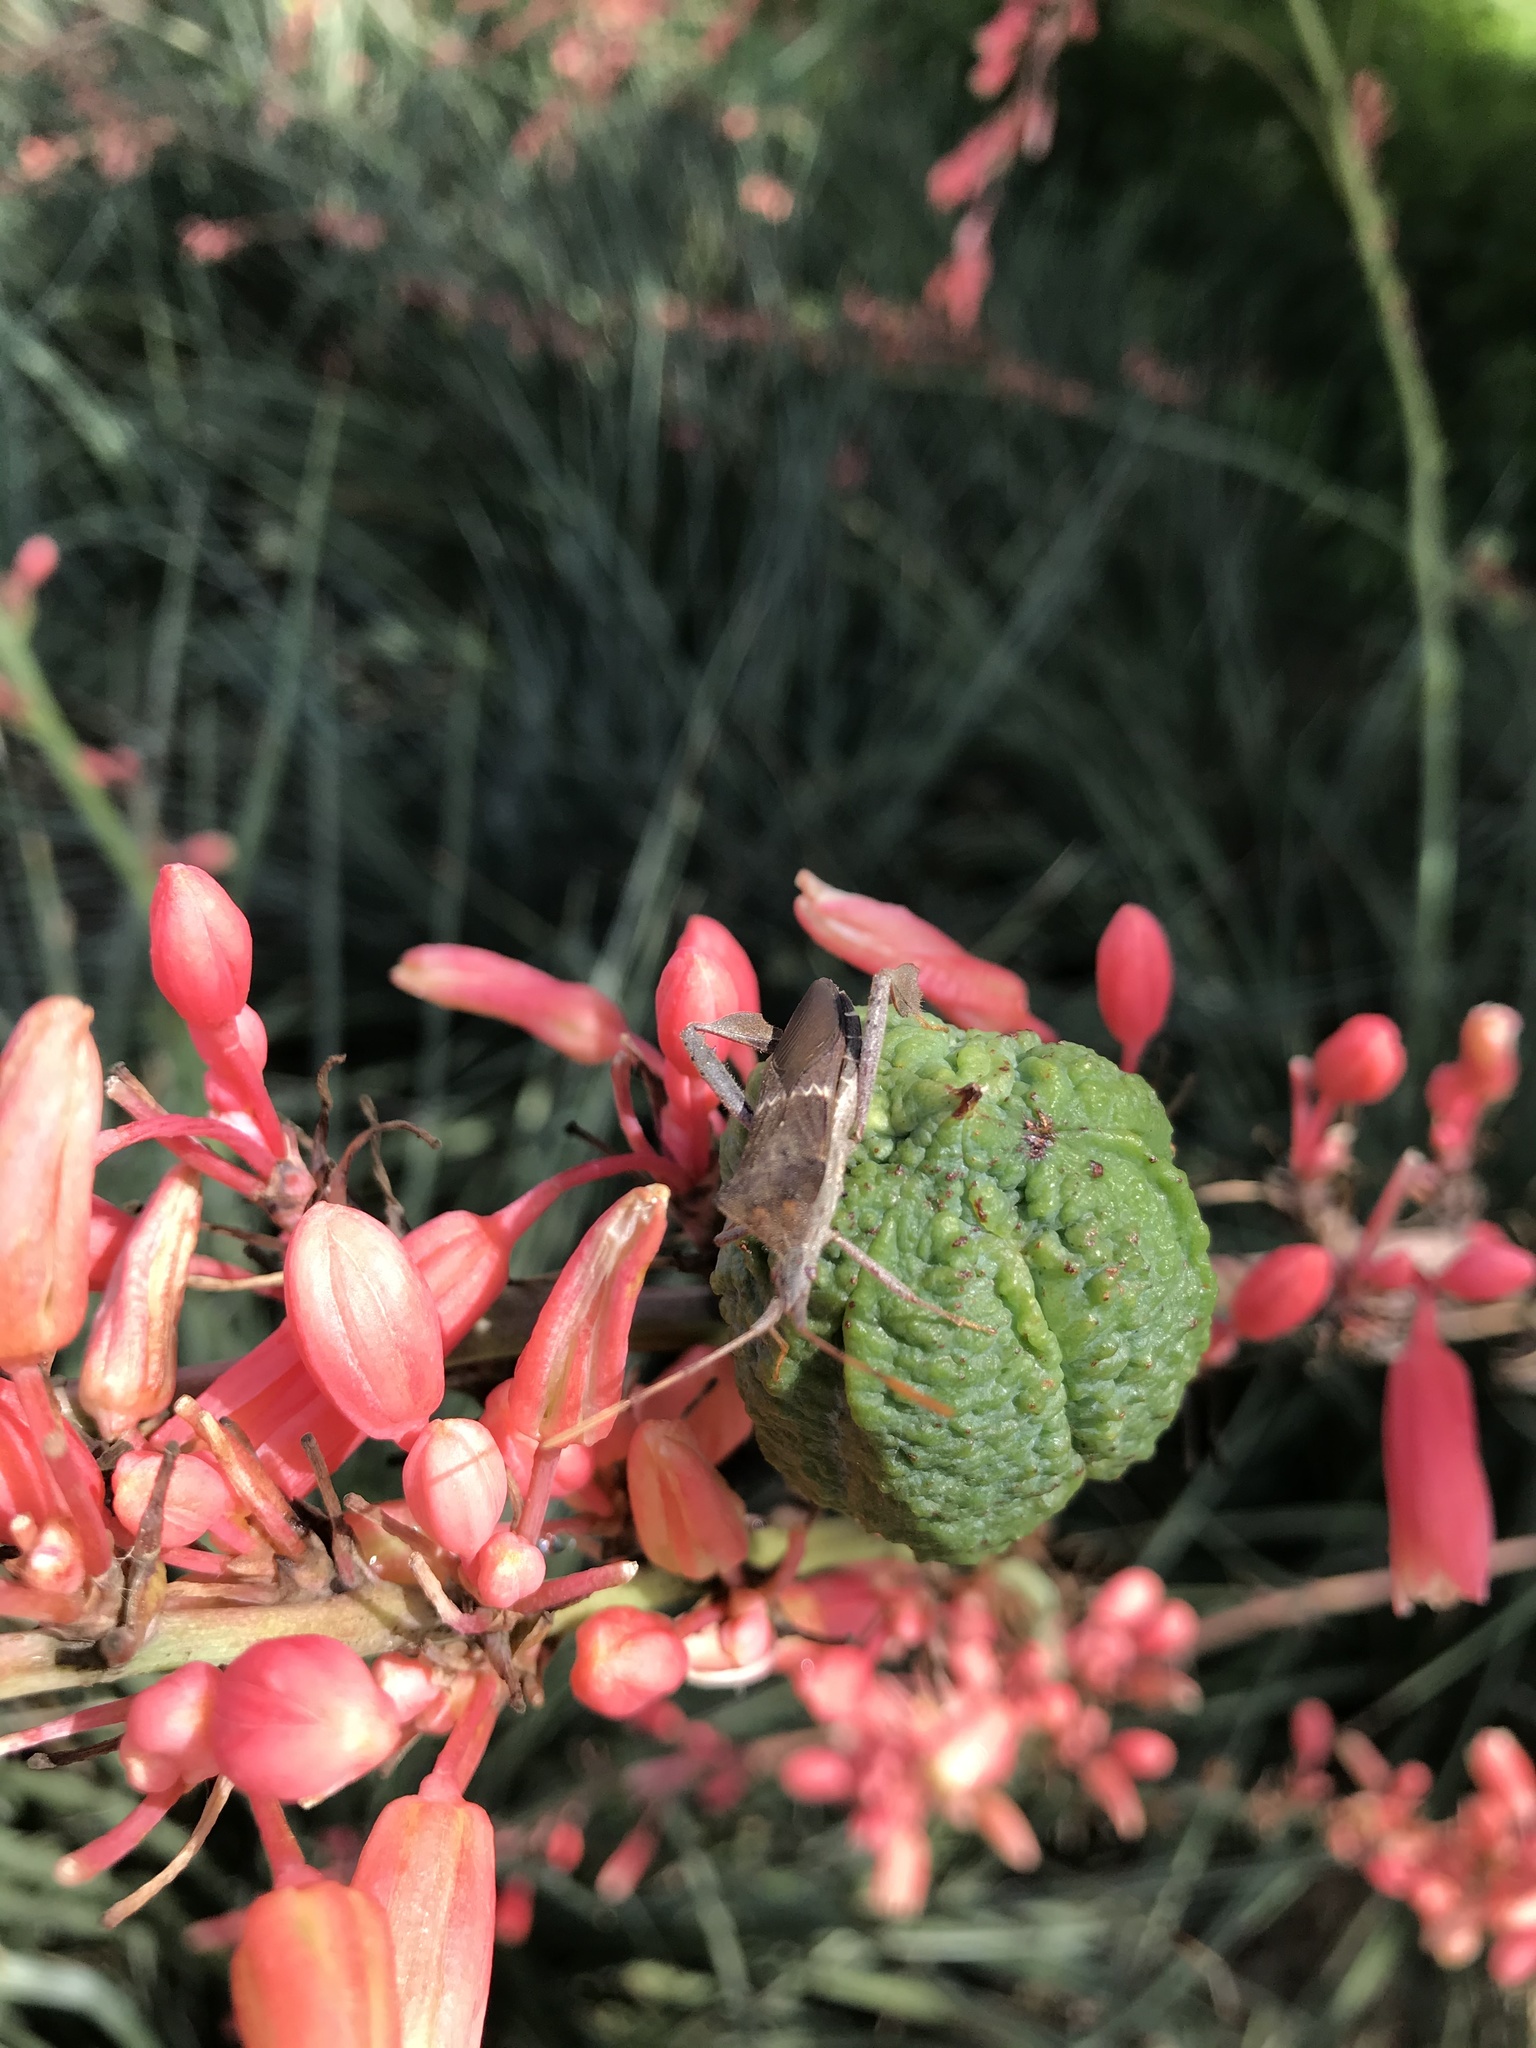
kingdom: Animalia
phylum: Arthropoda
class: Insecta
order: Hemiptera
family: Coreidae
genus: Leptoglossus
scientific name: Leptoglossus zonatus
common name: Large-legged bug
